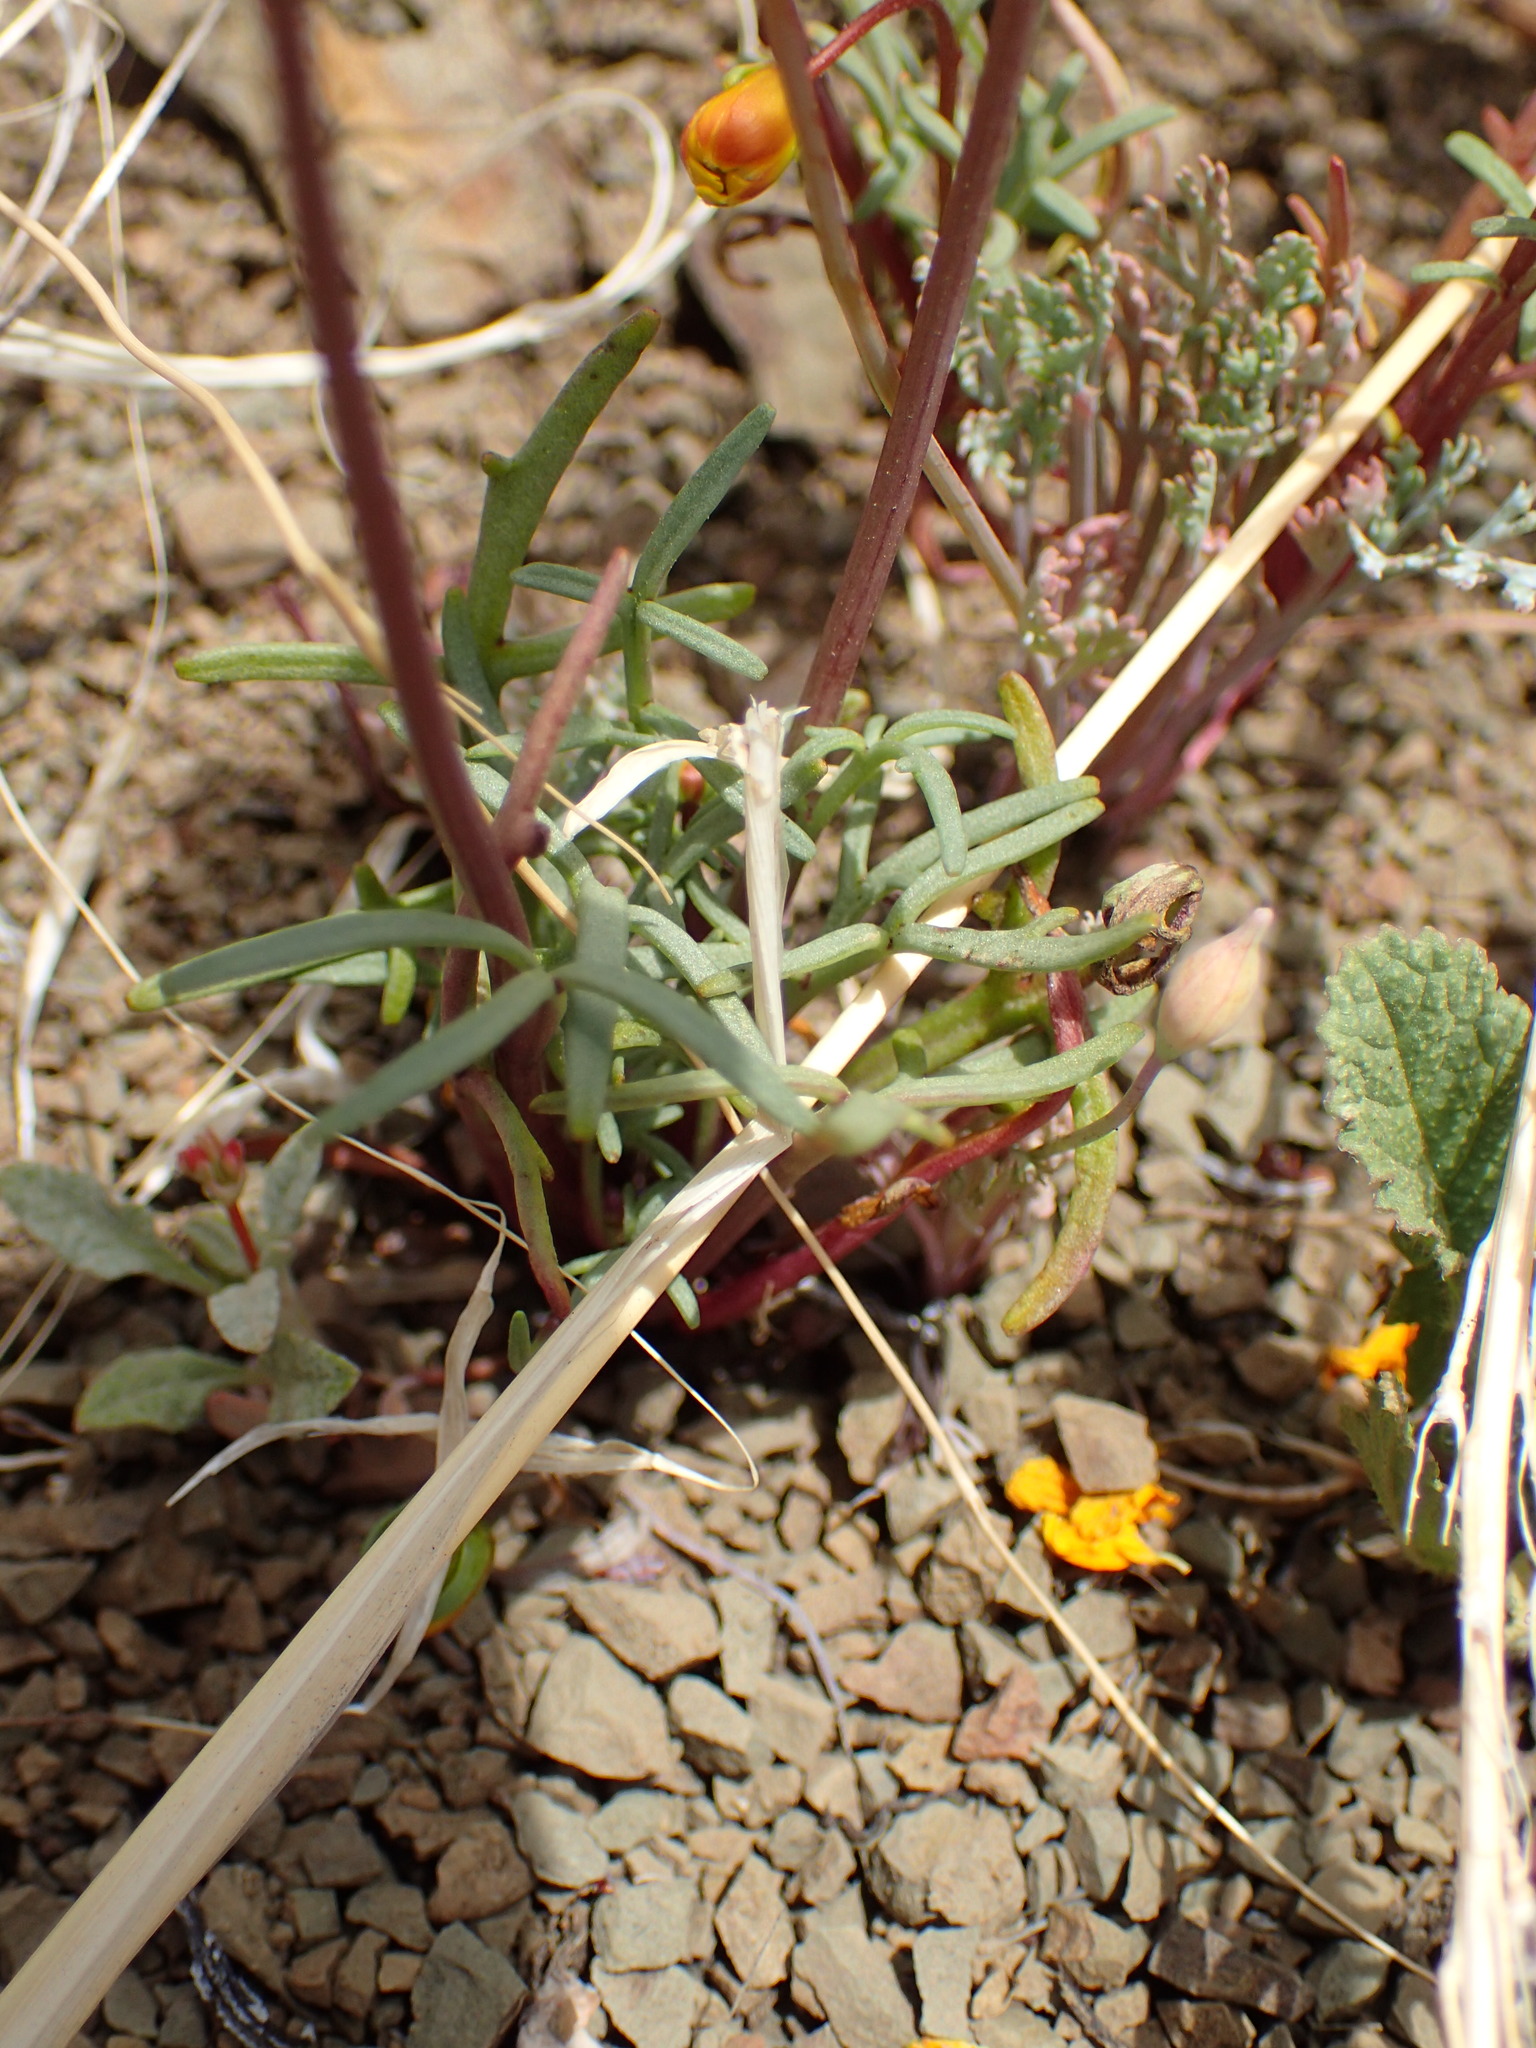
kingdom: Plantae
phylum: Tracheophyta
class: Magnoliopsida
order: Asterales
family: Asteraceae
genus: Coreopsis
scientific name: Coreopsis bigelovii
